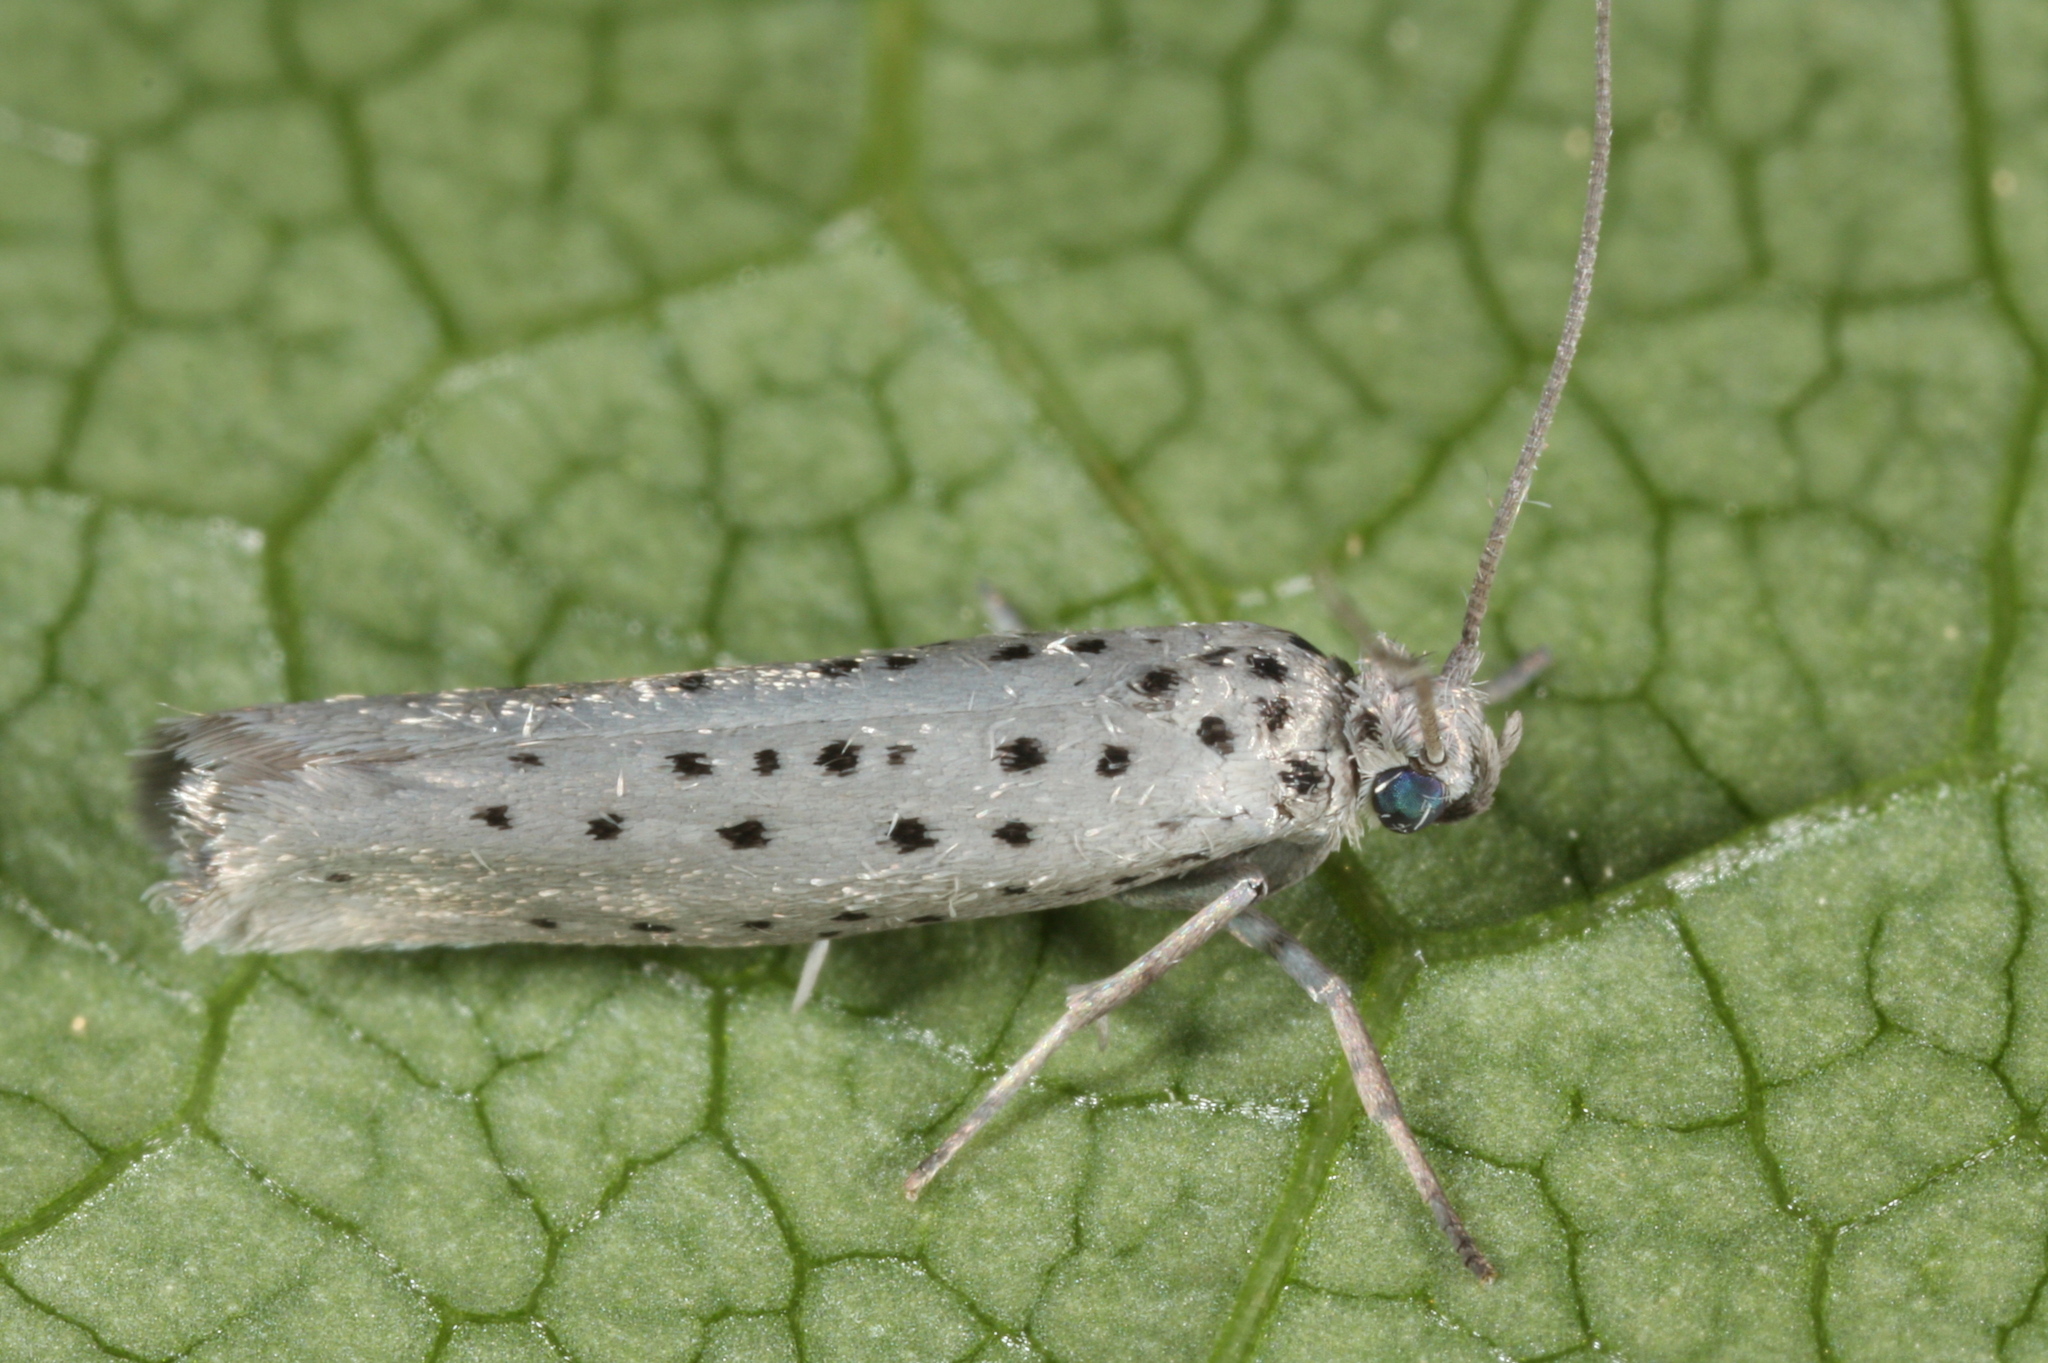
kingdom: Animalia
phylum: Arthropoda
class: Insecta
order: Lepidoptera
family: Yponomeutidae
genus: Yponomeuta
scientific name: Yponomeuta vigintipunctata
